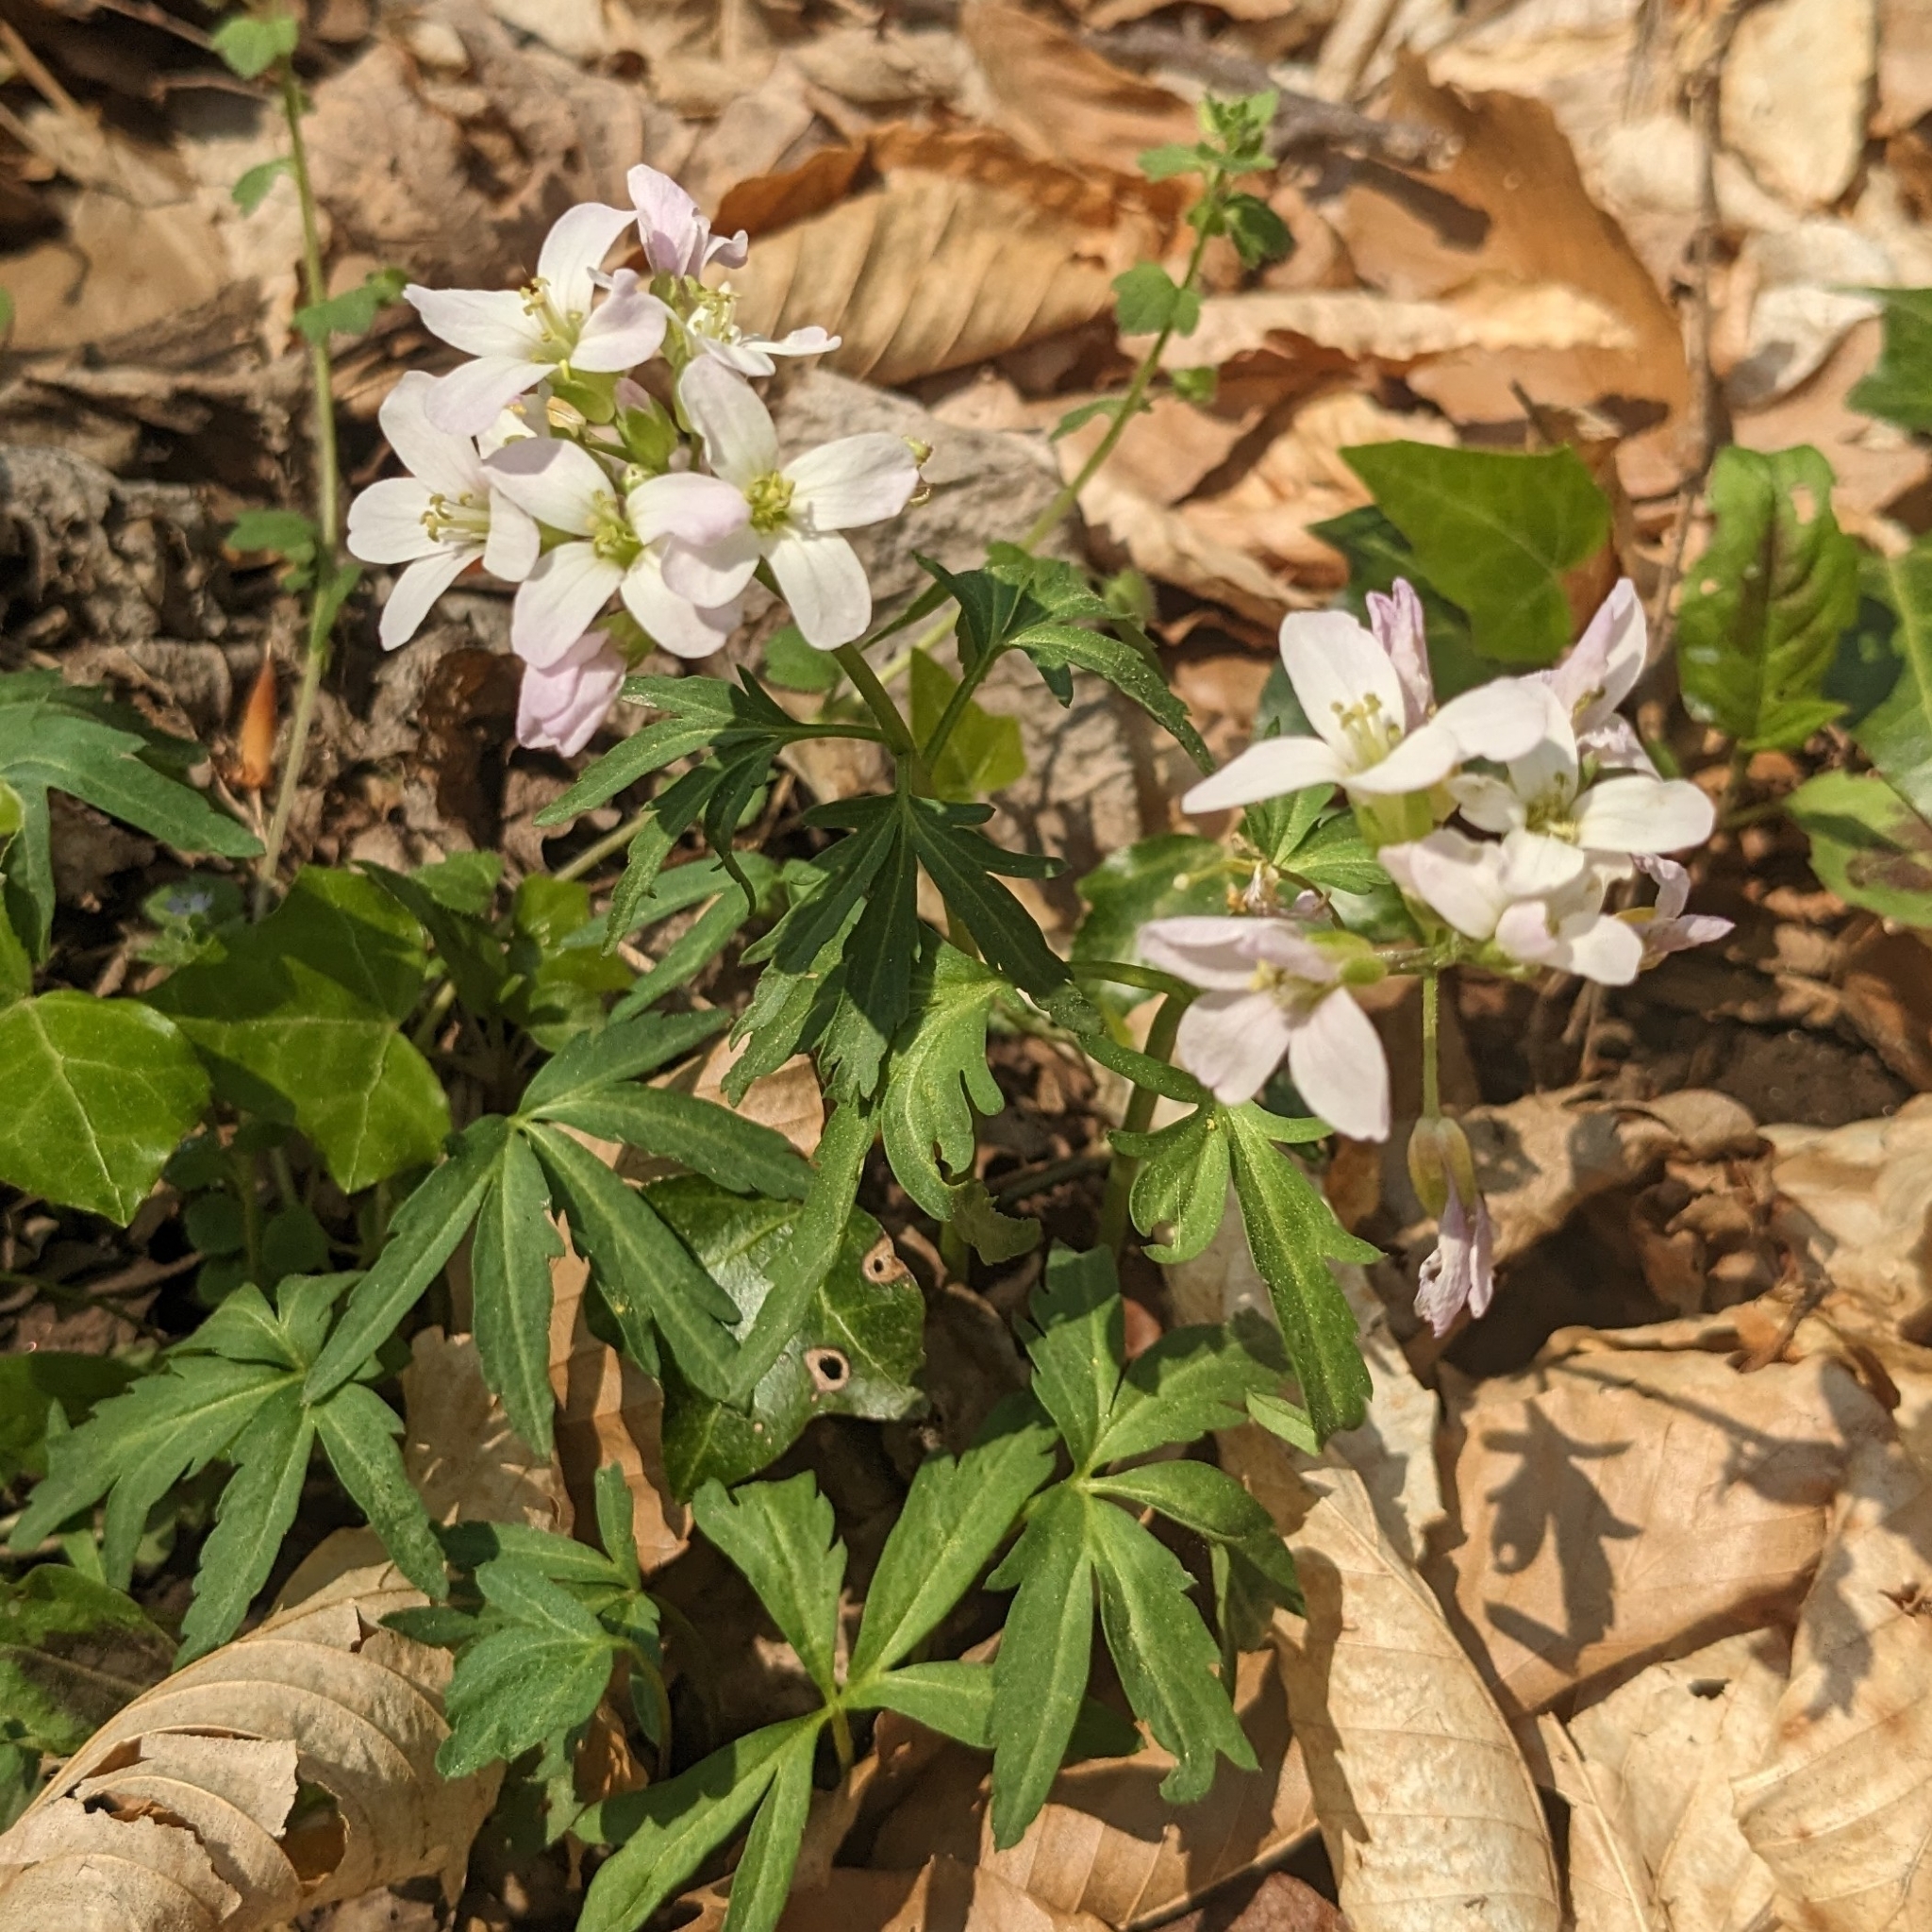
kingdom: Plantae
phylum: Tracheophyta
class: Magnoliopsida
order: Brassicales
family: Brassicaceae
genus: Cardamine
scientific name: Cardamine concatenata
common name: Cut-leaf toothcup
